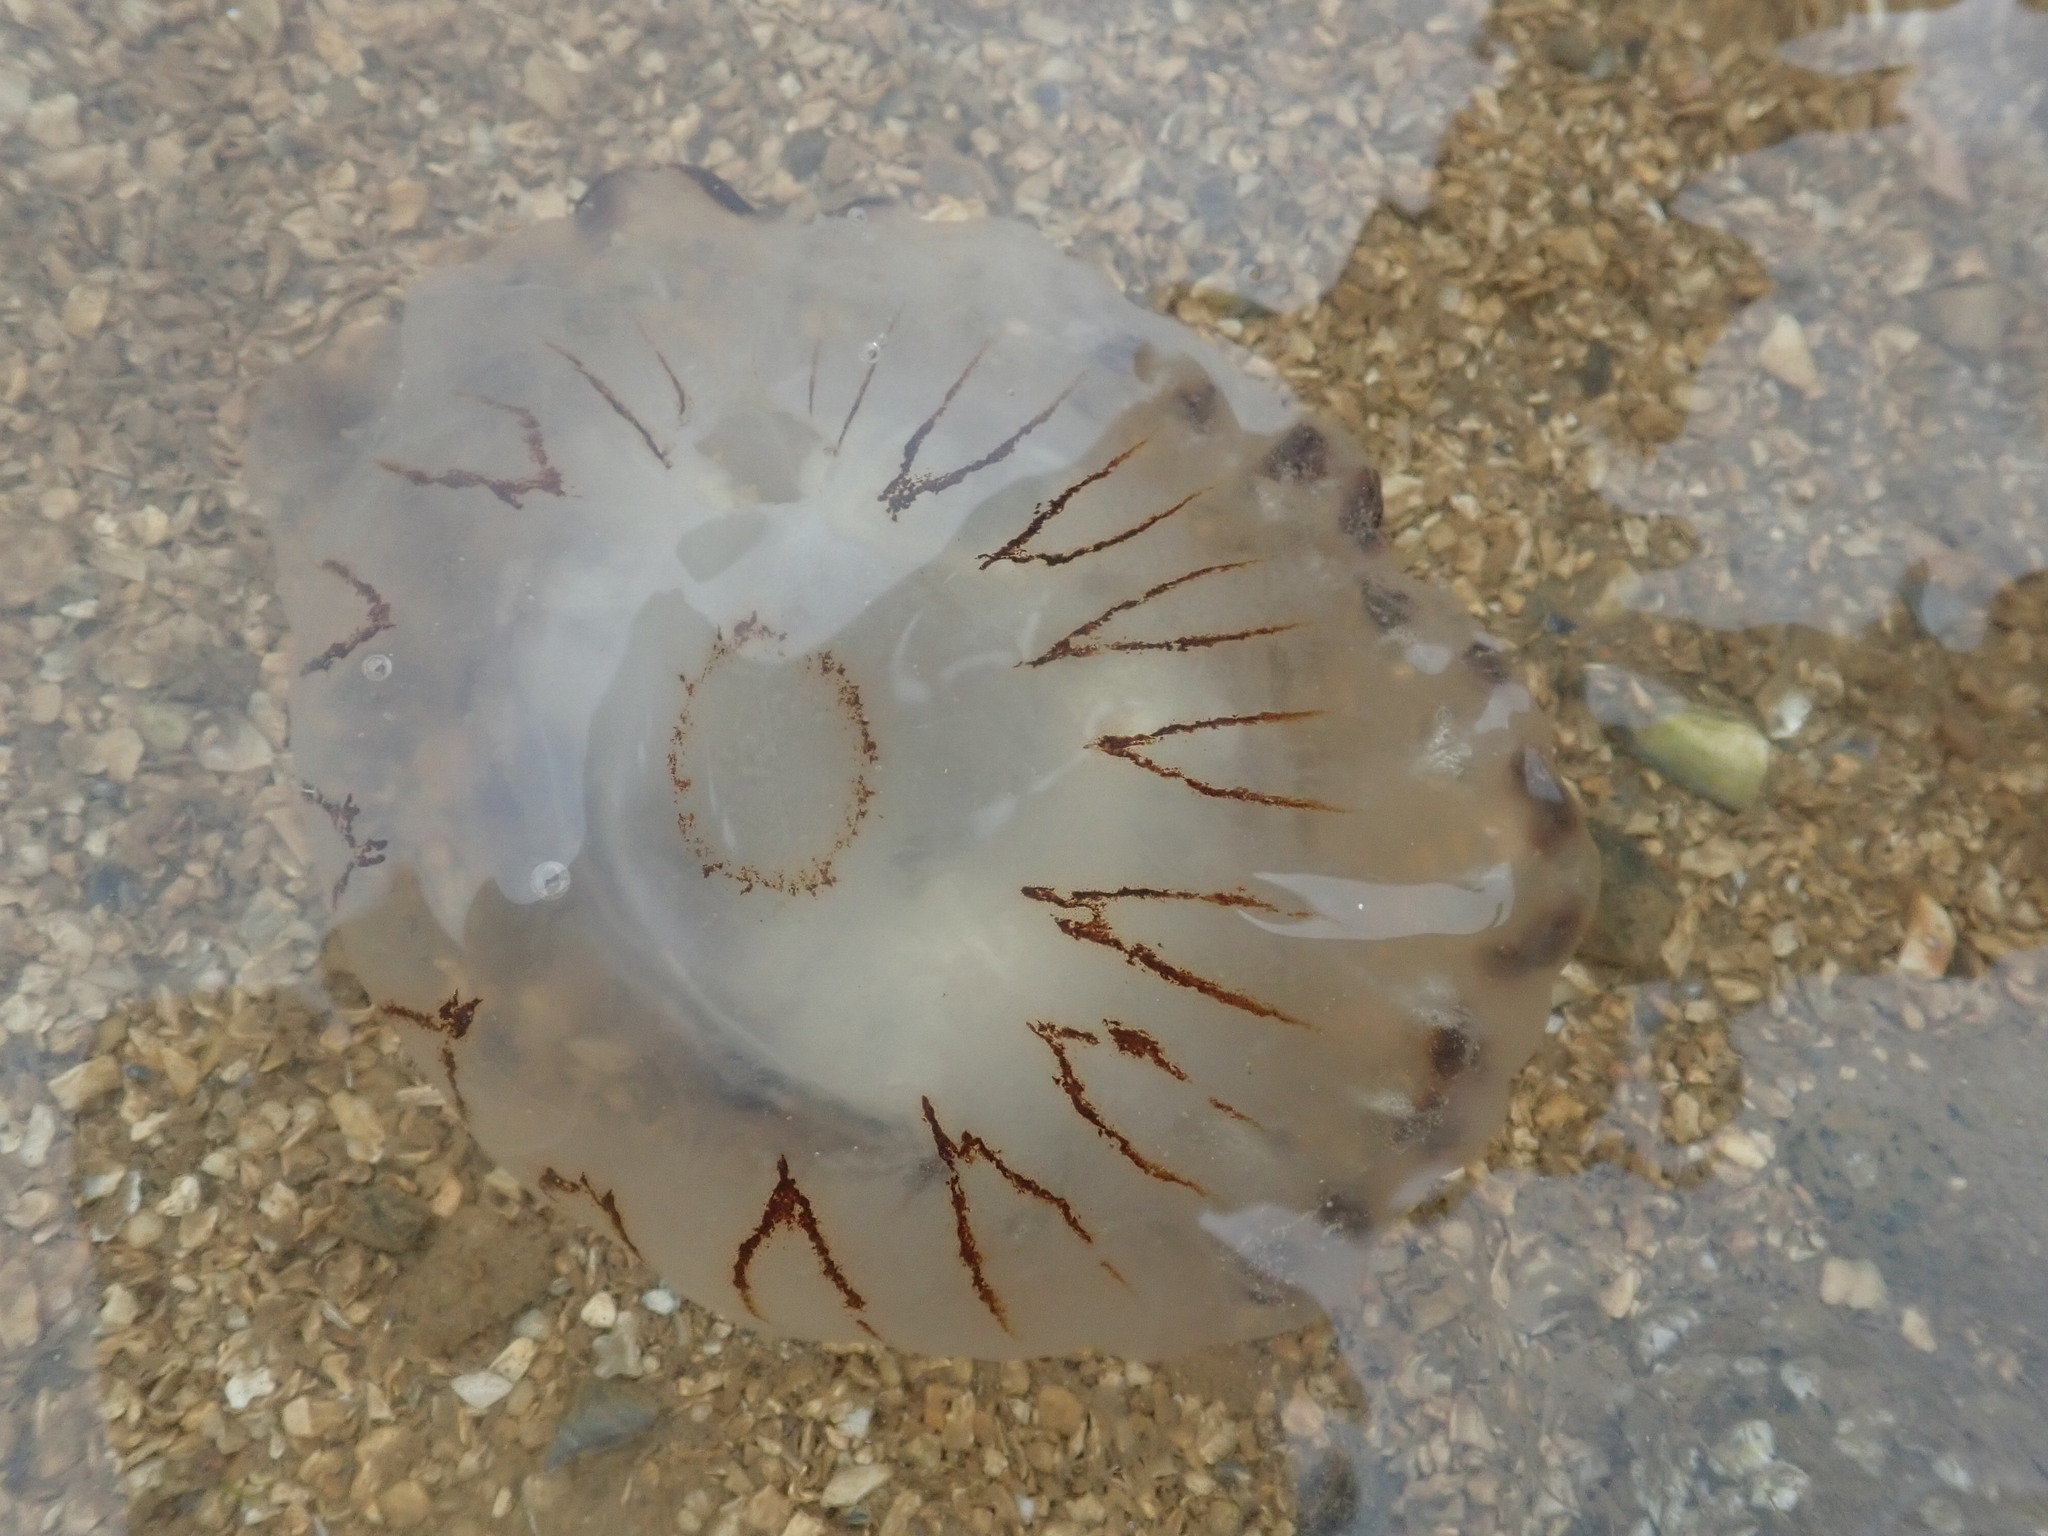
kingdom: Animalia
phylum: Cnidaria
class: Scyphozoa
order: Semaeostomeae
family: Pelagiidae
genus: Chrysaora
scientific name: Chrysaora hysoscella
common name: Compass jellyfish
